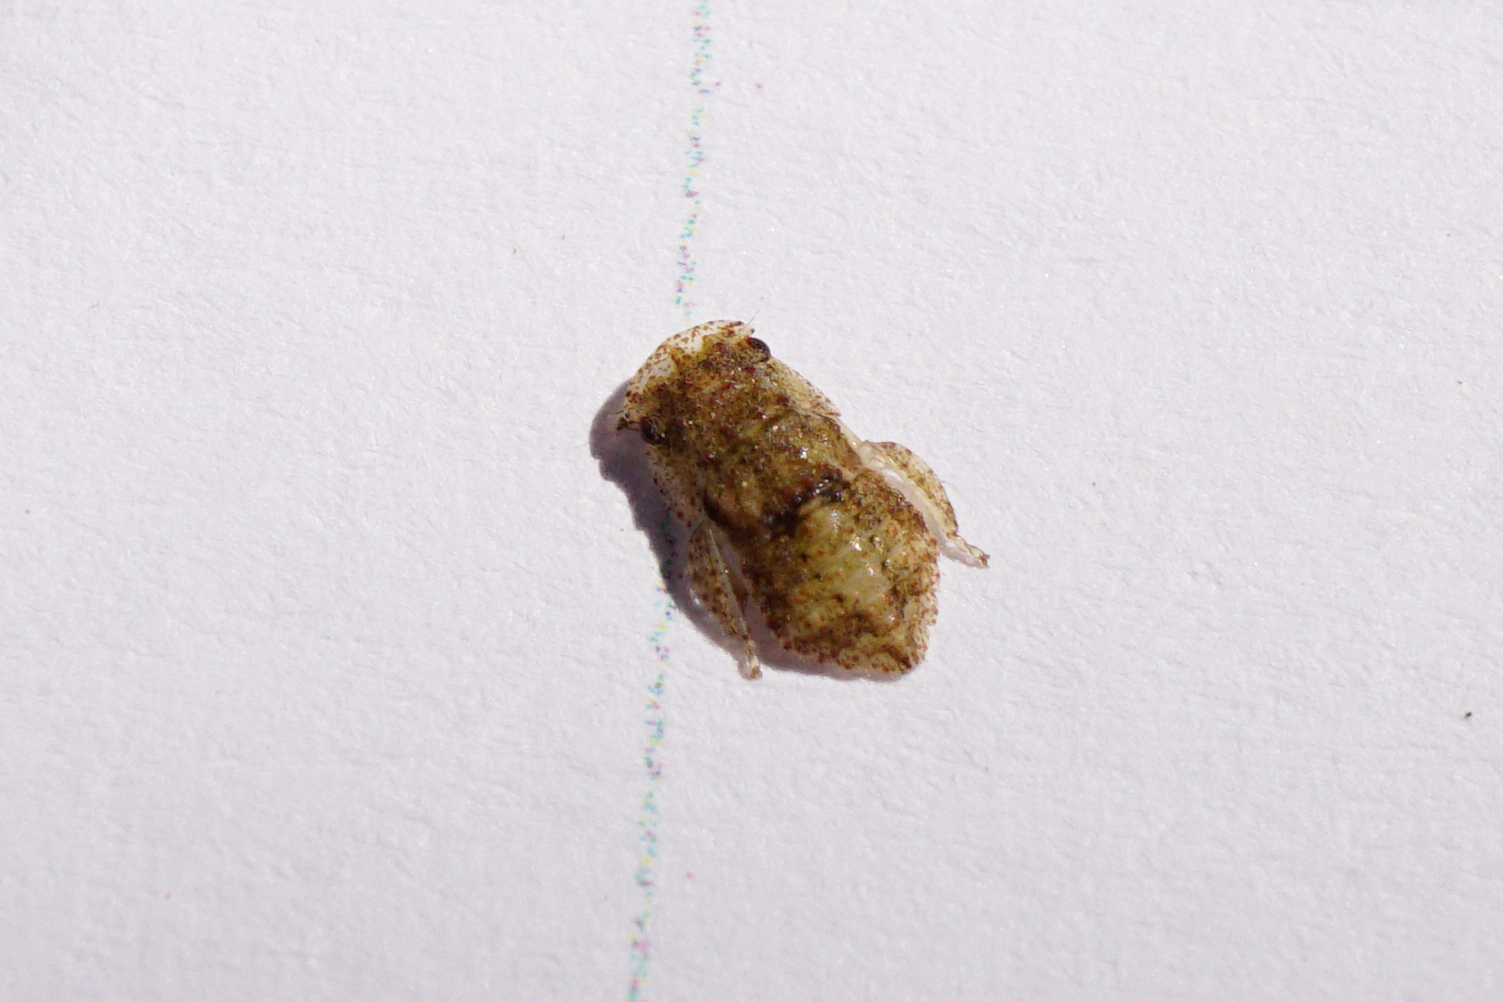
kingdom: Animalia
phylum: Arthropoda
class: Insecta
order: Hemiptera
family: Cicadellidae
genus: Ledra
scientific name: Ledra aurita
